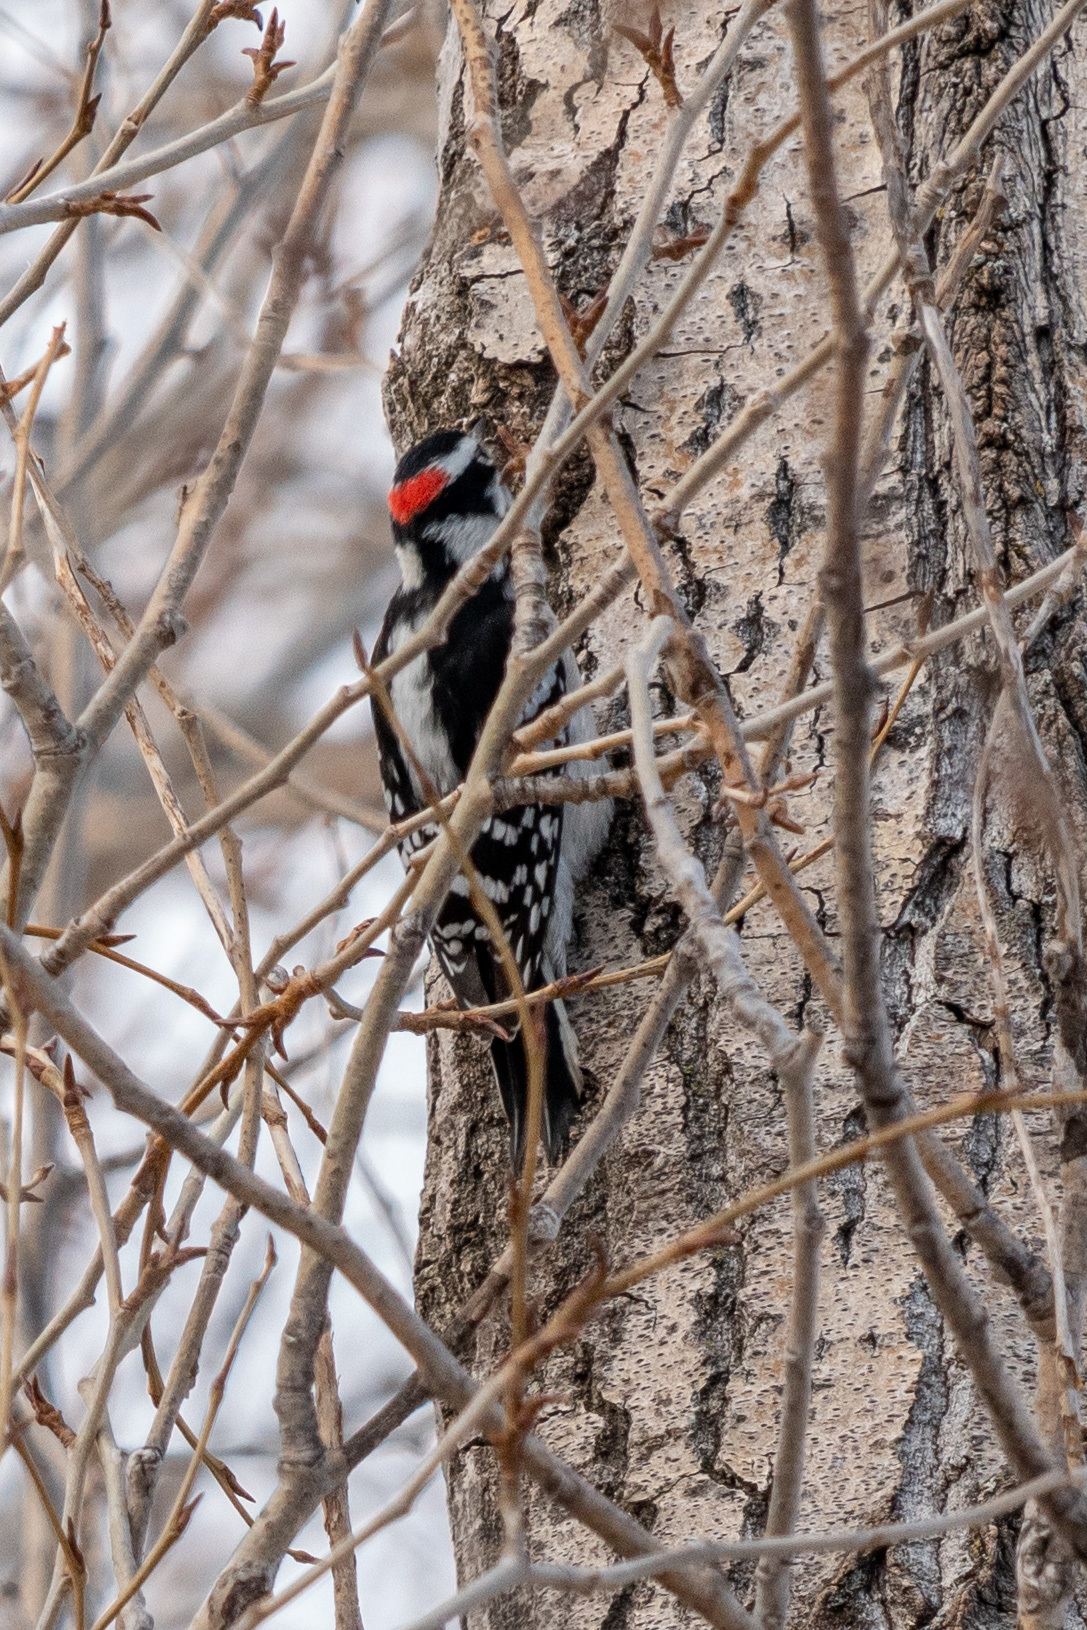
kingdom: Animalia
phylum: Chordata
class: Aves
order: Piciformes
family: Picidae
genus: Dryobates
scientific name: Dryobates pubescens
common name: Downy woodpecker
